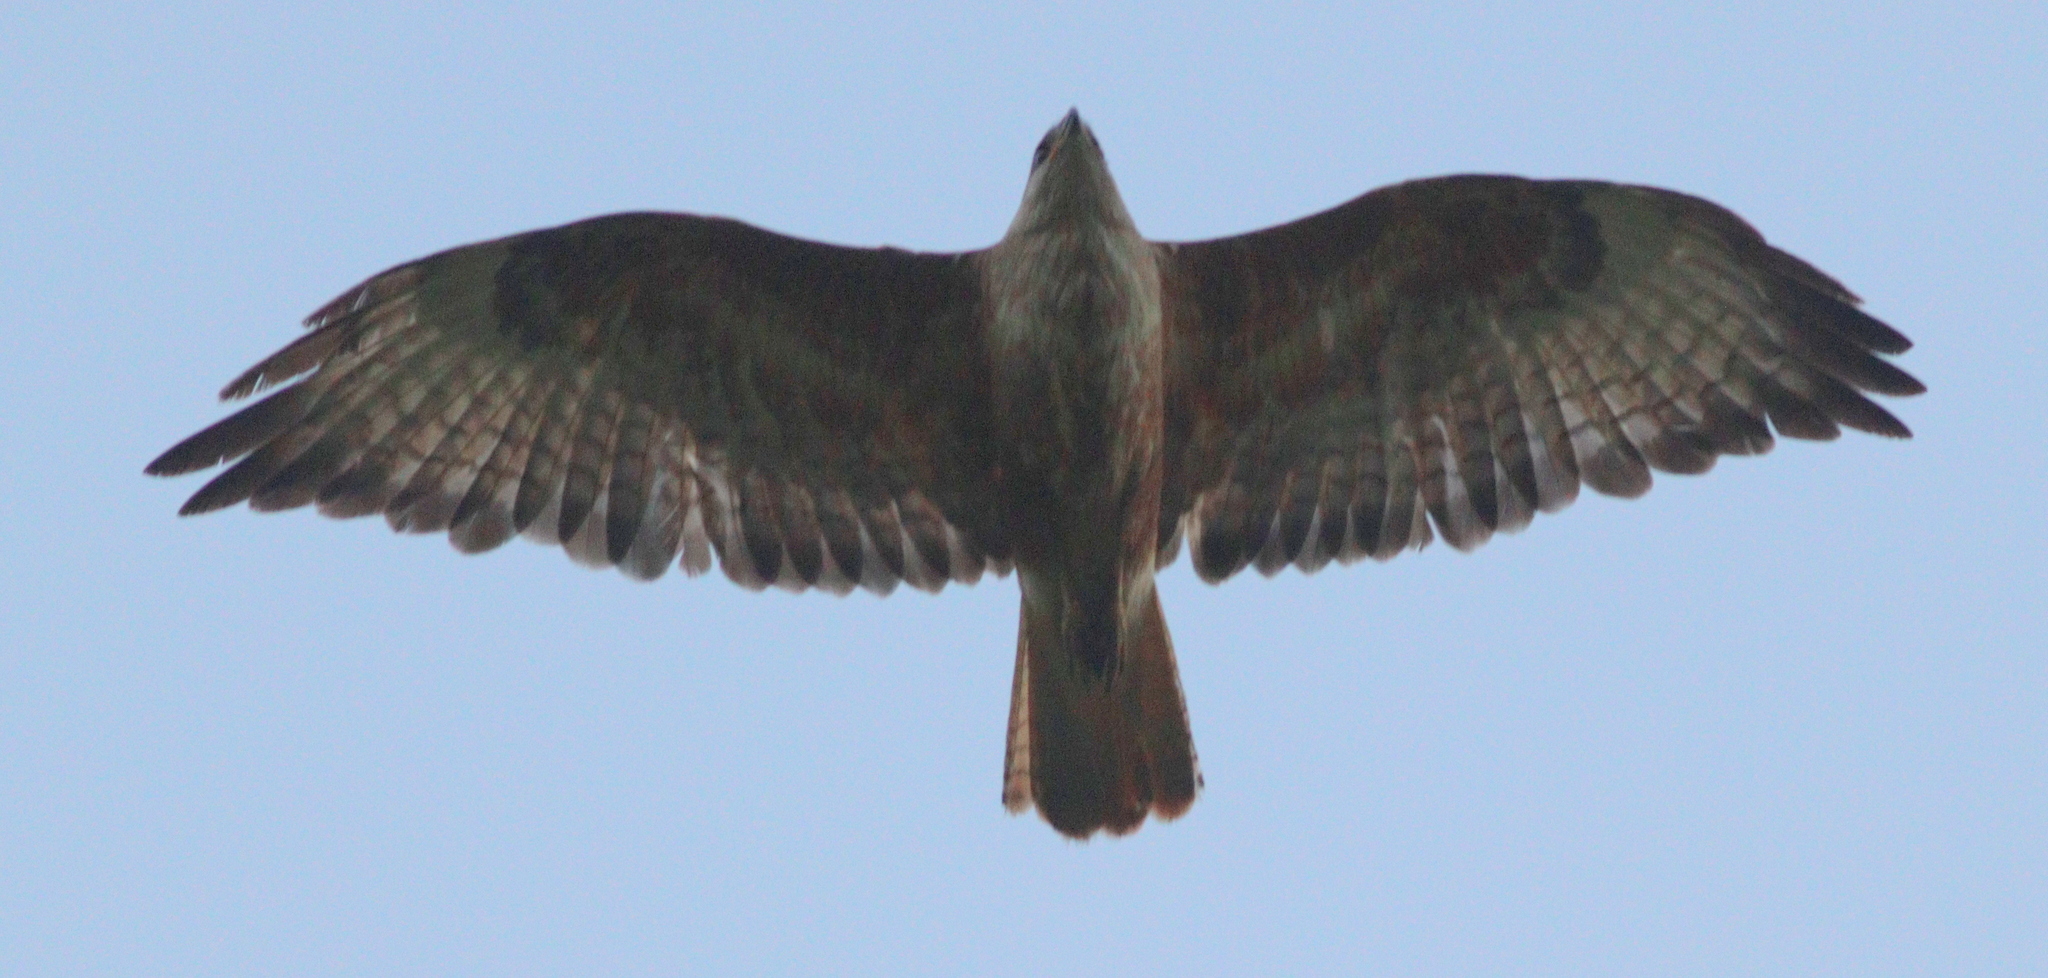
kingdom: Animalia
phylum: Chordata
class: Aves
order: Accipitriformes
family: Accipitridae
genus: Buteo
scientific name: Buteo rufinus
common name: Long-legged buzzard
